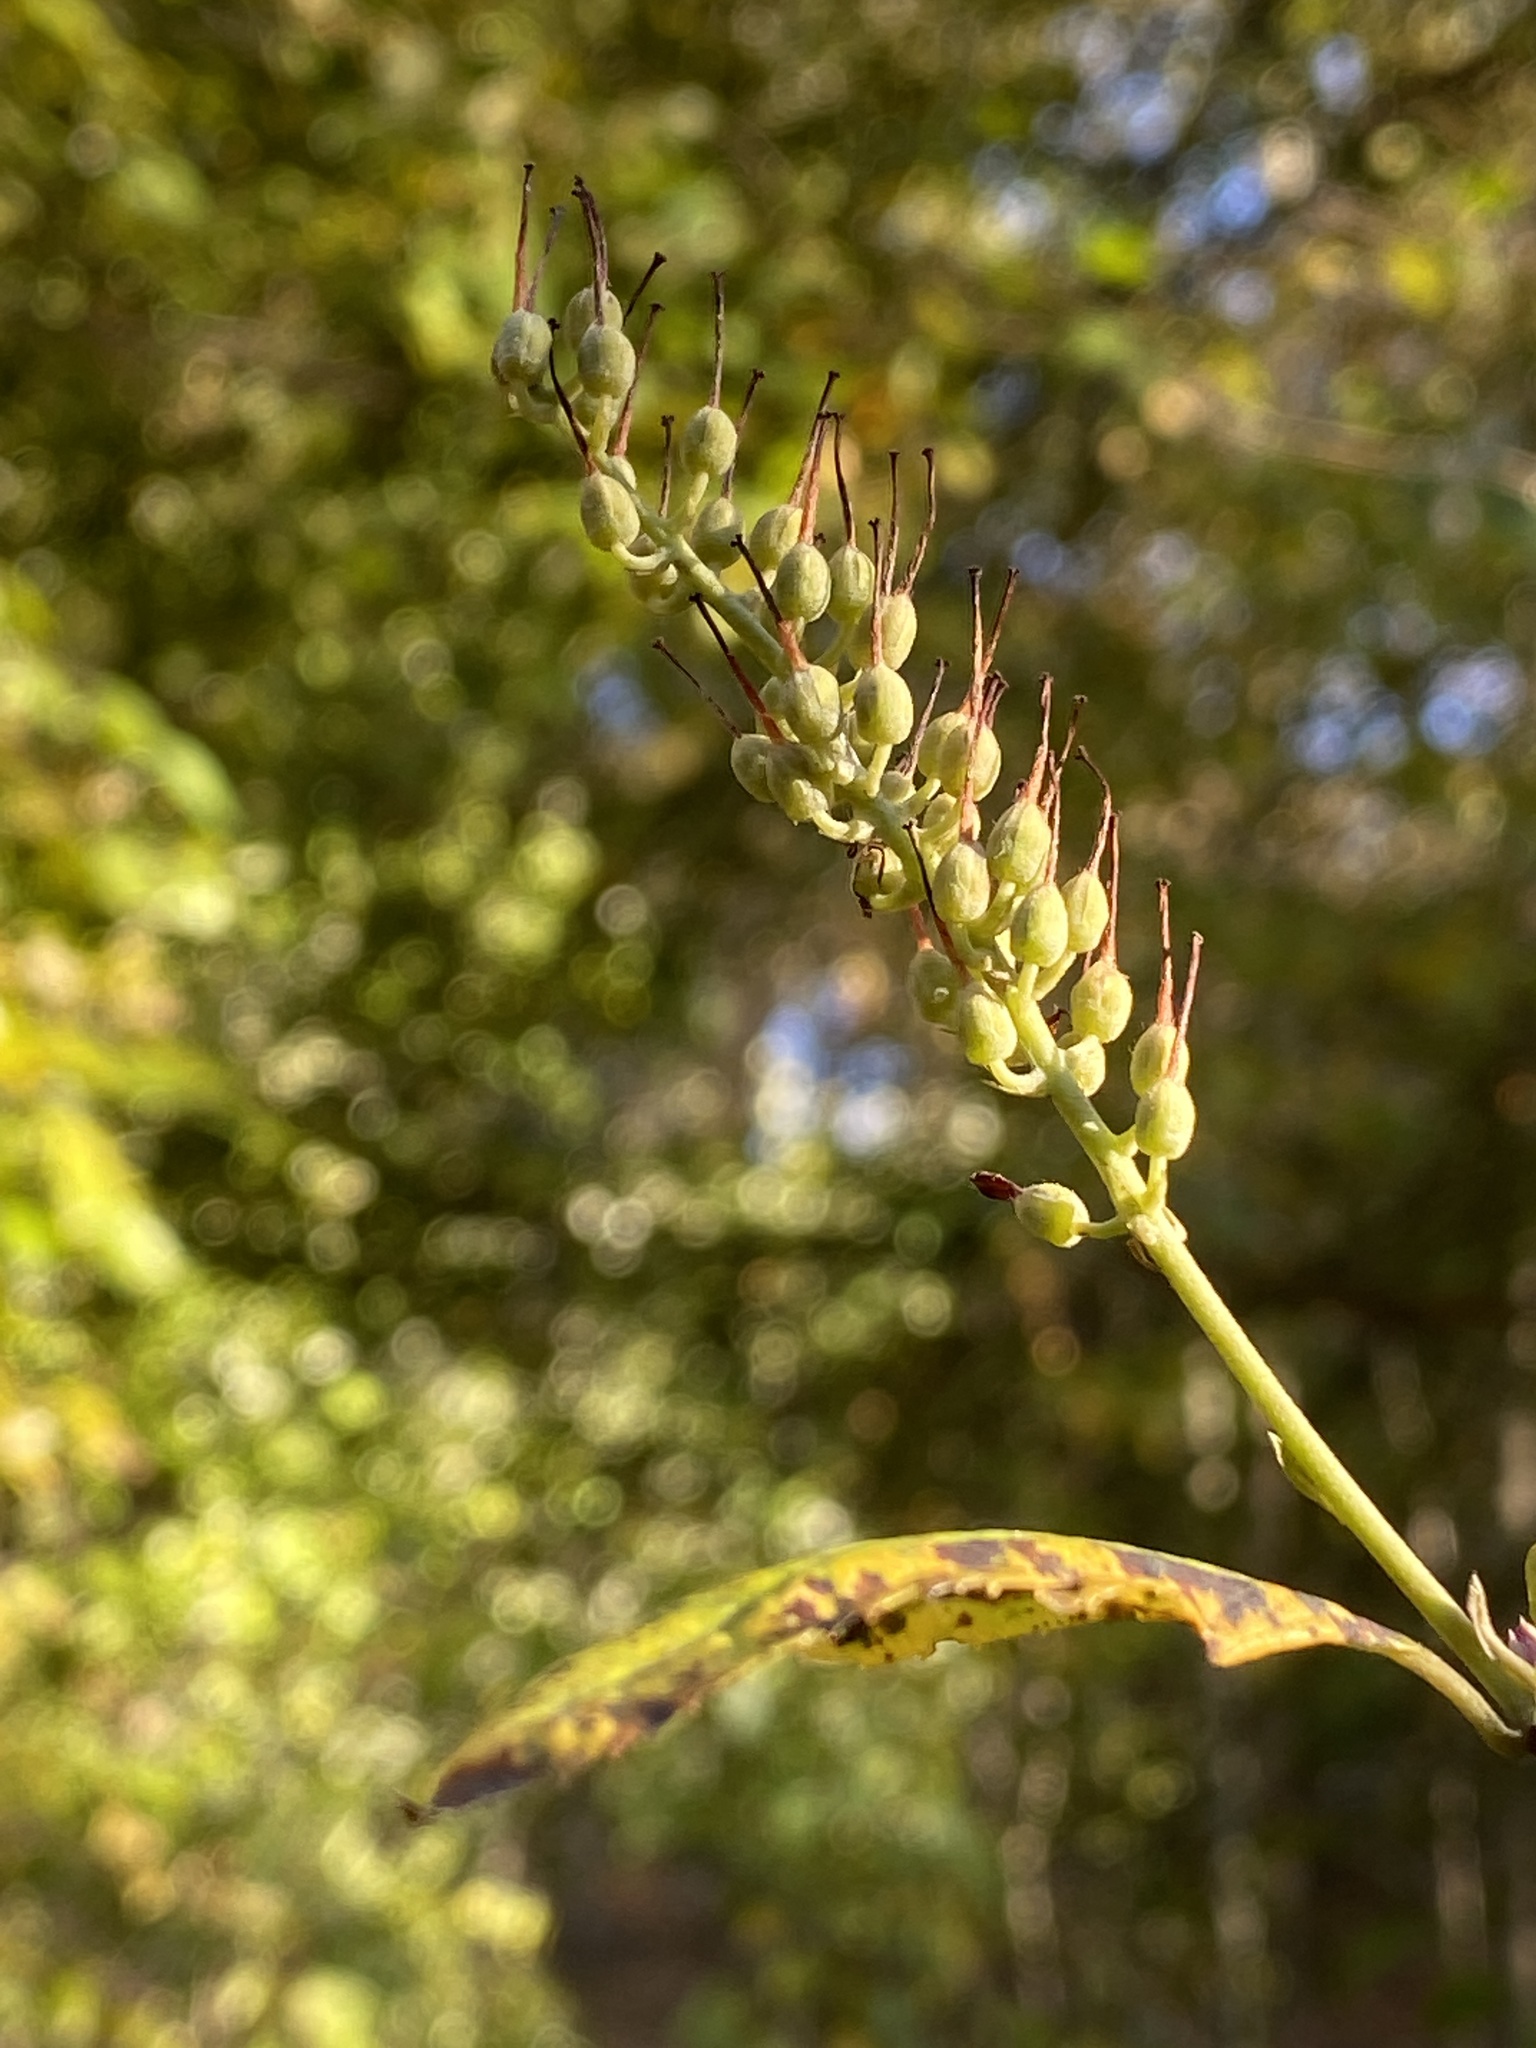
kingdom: Plantae
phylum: Tracheophyta
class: Magnoliopsida
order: Ericales
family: Clethraceae
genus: Clethra
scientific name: Clethra alnifolia
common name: Sweet pepperbush
